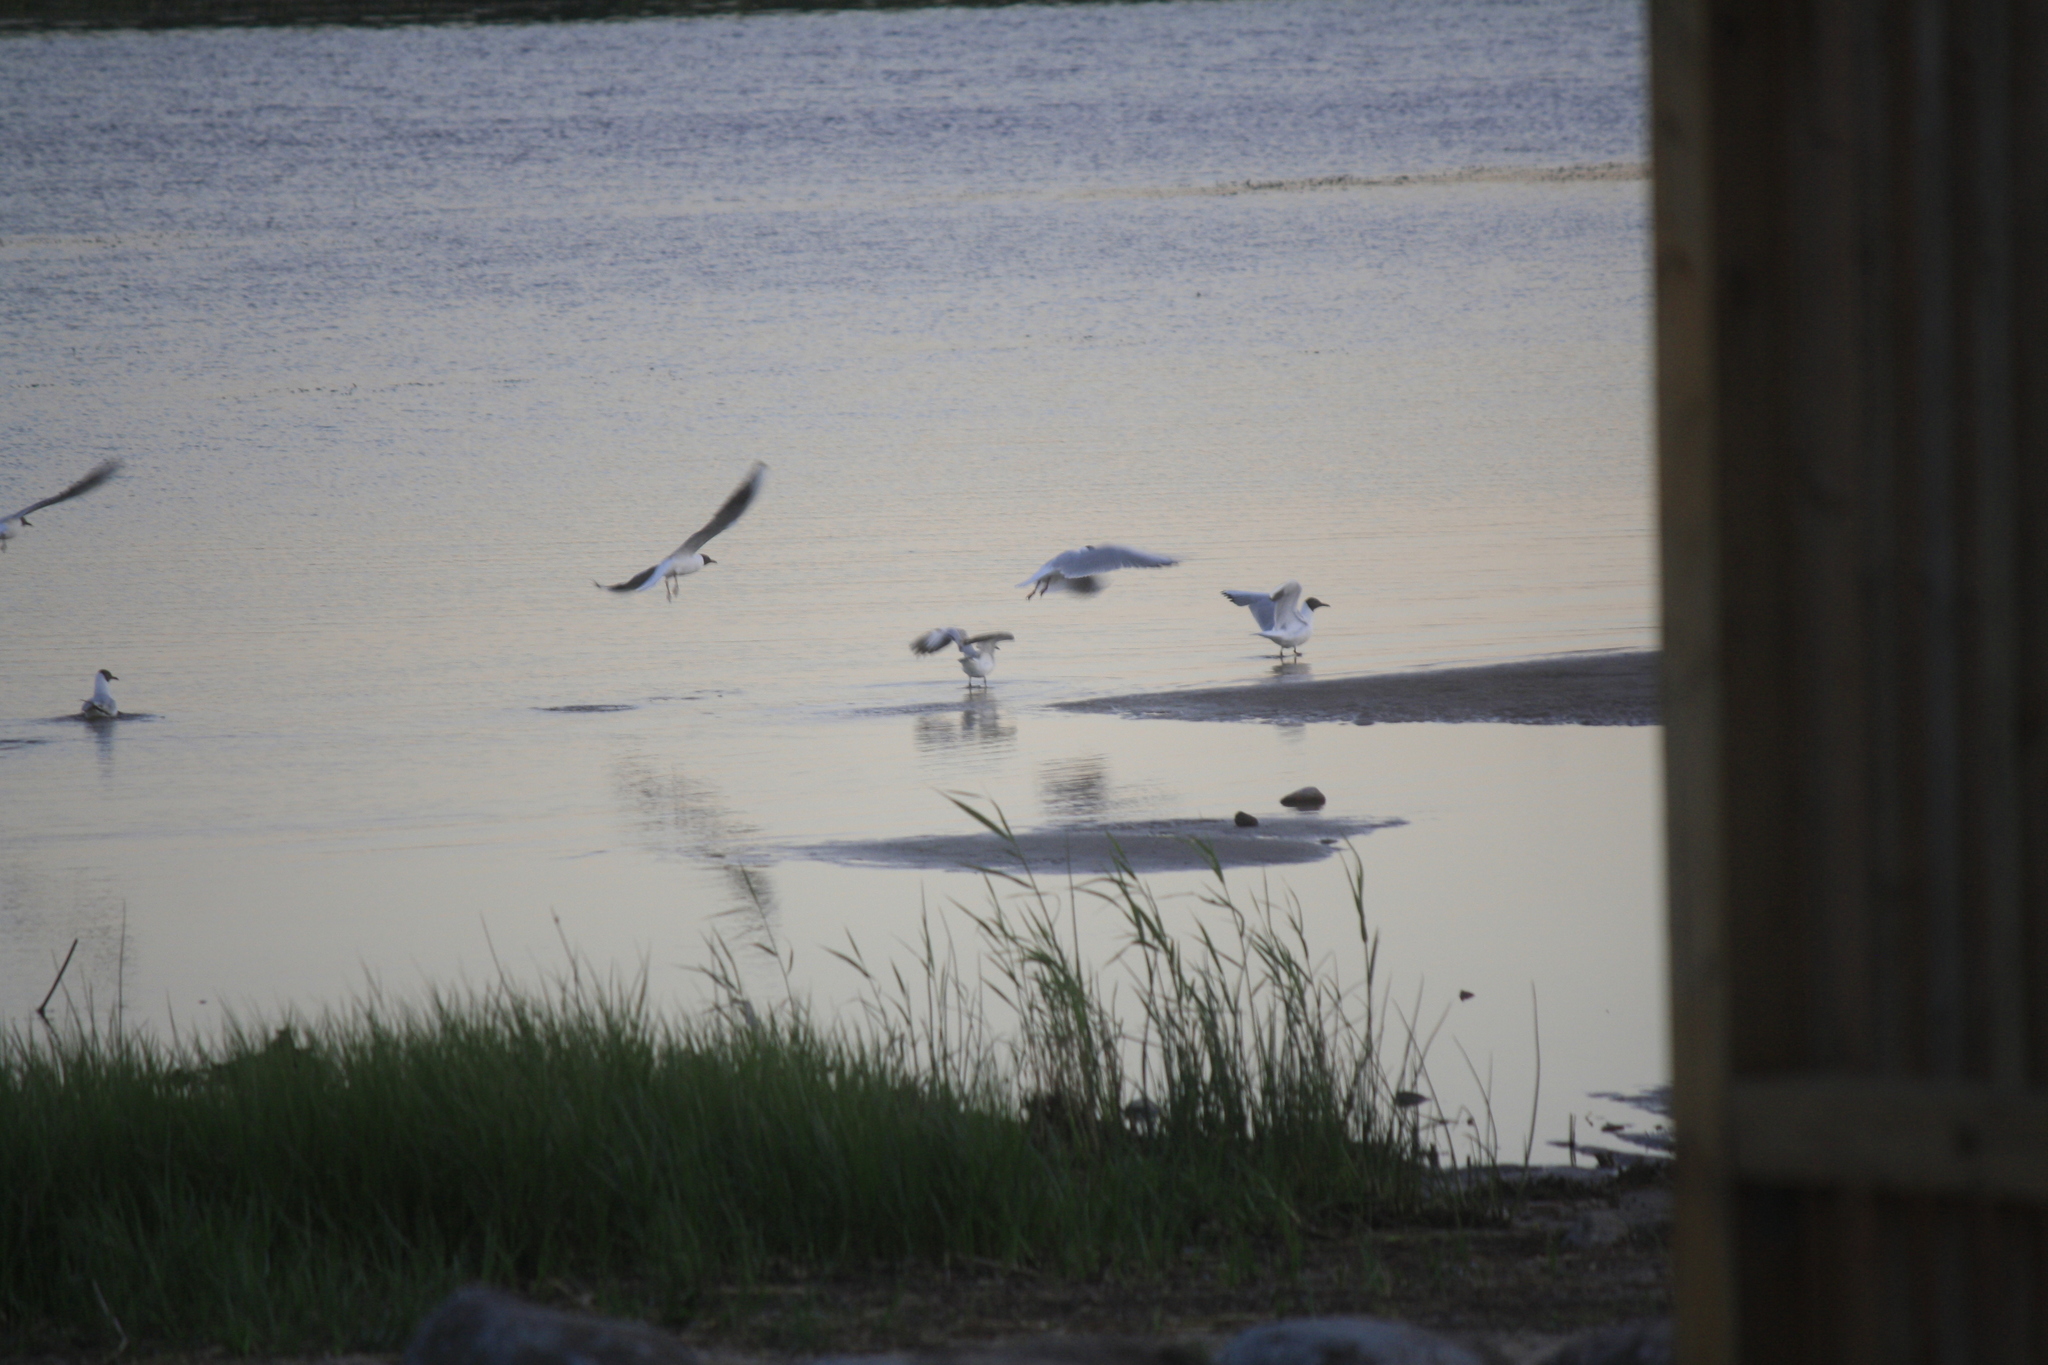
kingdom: Animalia
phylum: Chordata
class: Aves
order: Charadriiformes
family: Laridae
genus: Chroicocephalus
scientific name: Chroicocephalus ridibundus
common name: Black-headed gull
